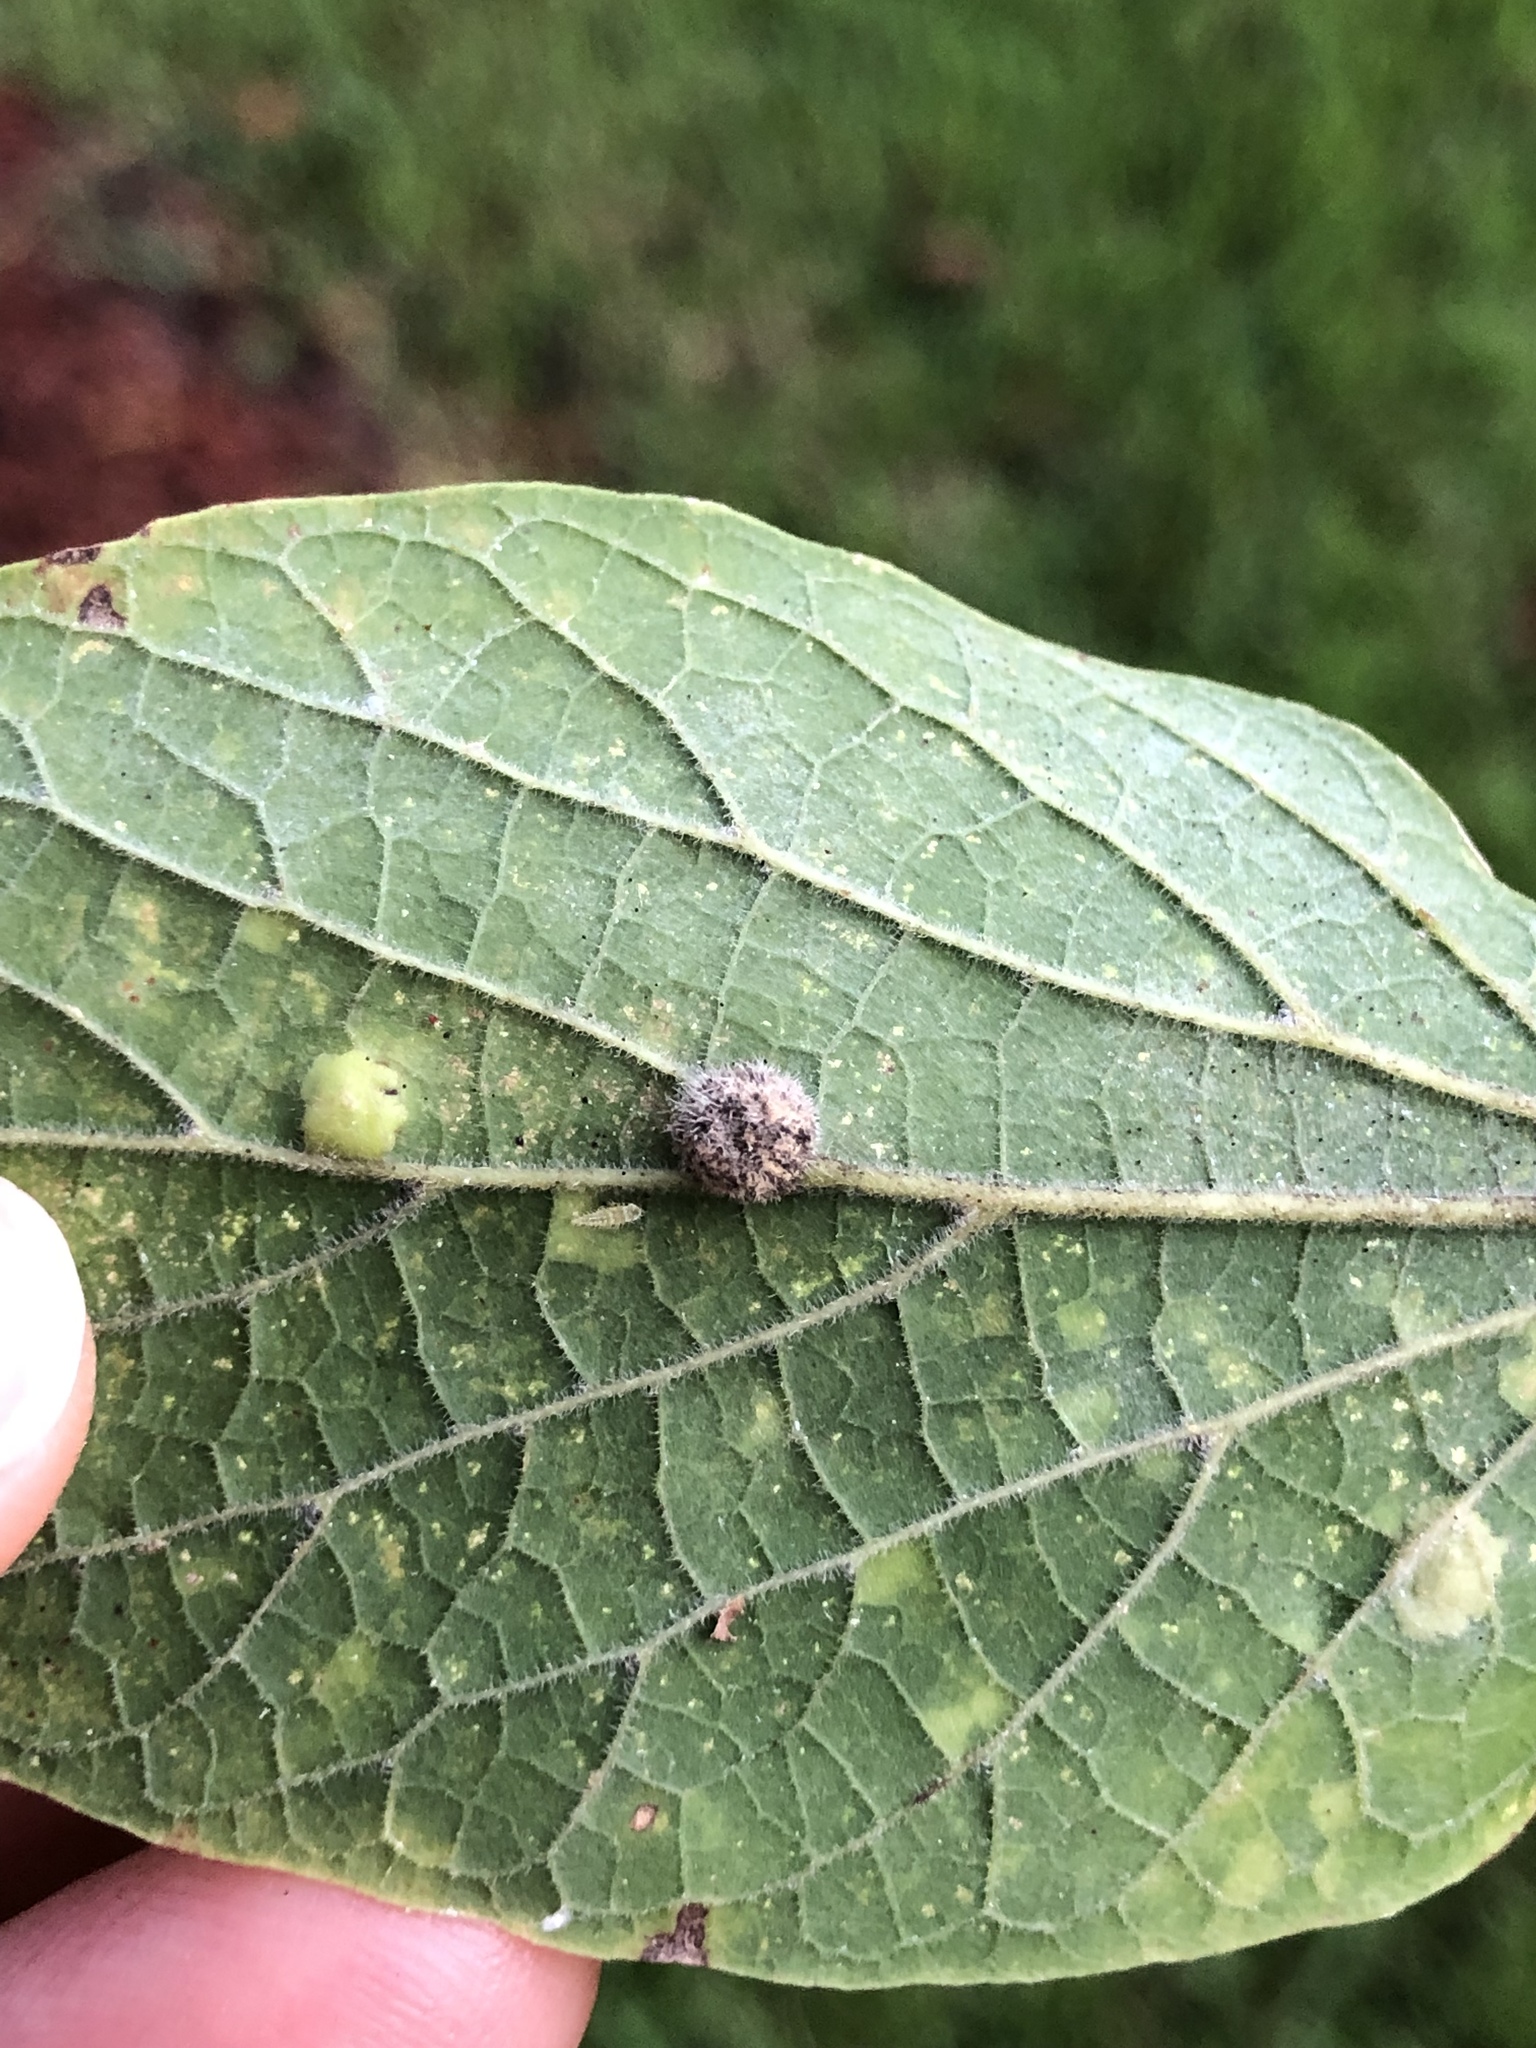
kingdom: Animalia
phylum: Arthropoda
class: Insecta
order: Diptera
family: Cecidomyiidae
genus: Celticecis
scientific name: Celticecis pubescens
